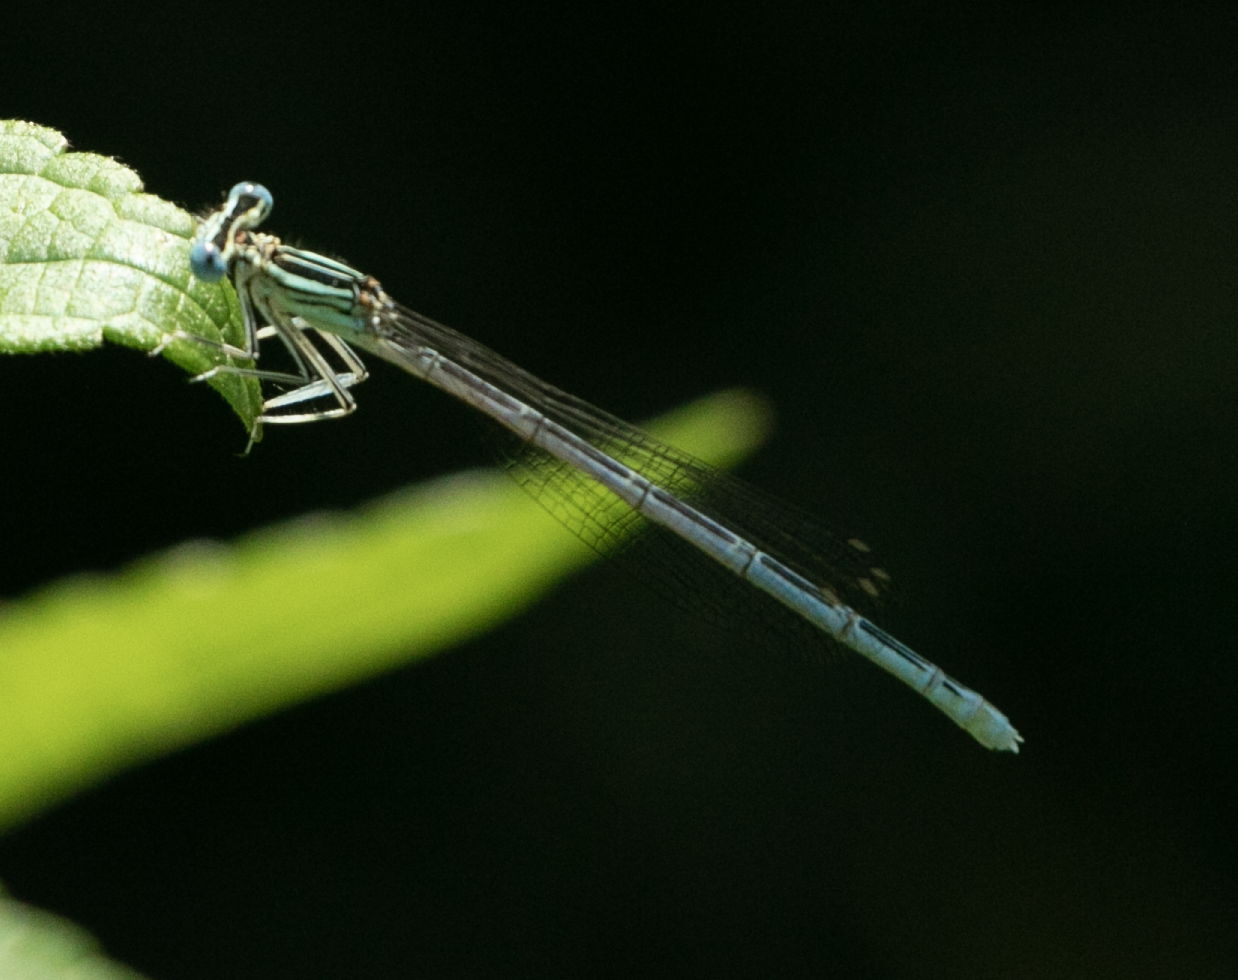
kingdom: Animalia
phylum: Arthropoda
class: Insecta
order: Odonata
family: Platycnemididae
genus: Platycnemis
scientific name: Platycnemis pennipes
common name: White-legged damselfly
